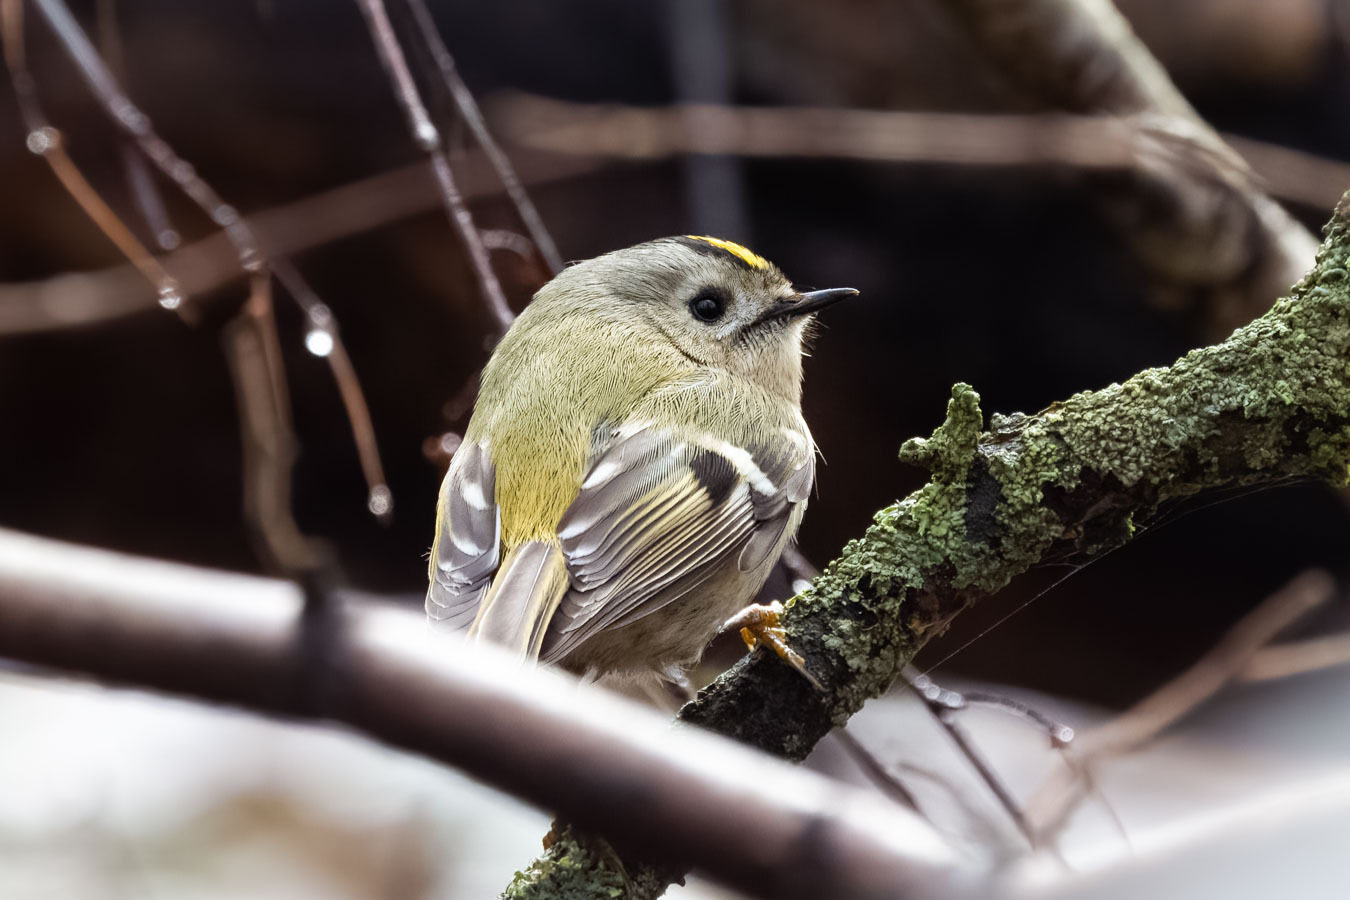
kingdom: Animalia
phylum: Chordata
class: Aves
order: Passeriformes
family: Regulidae
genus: Regulus
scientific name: Regulus regulus
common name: Goldcrest
